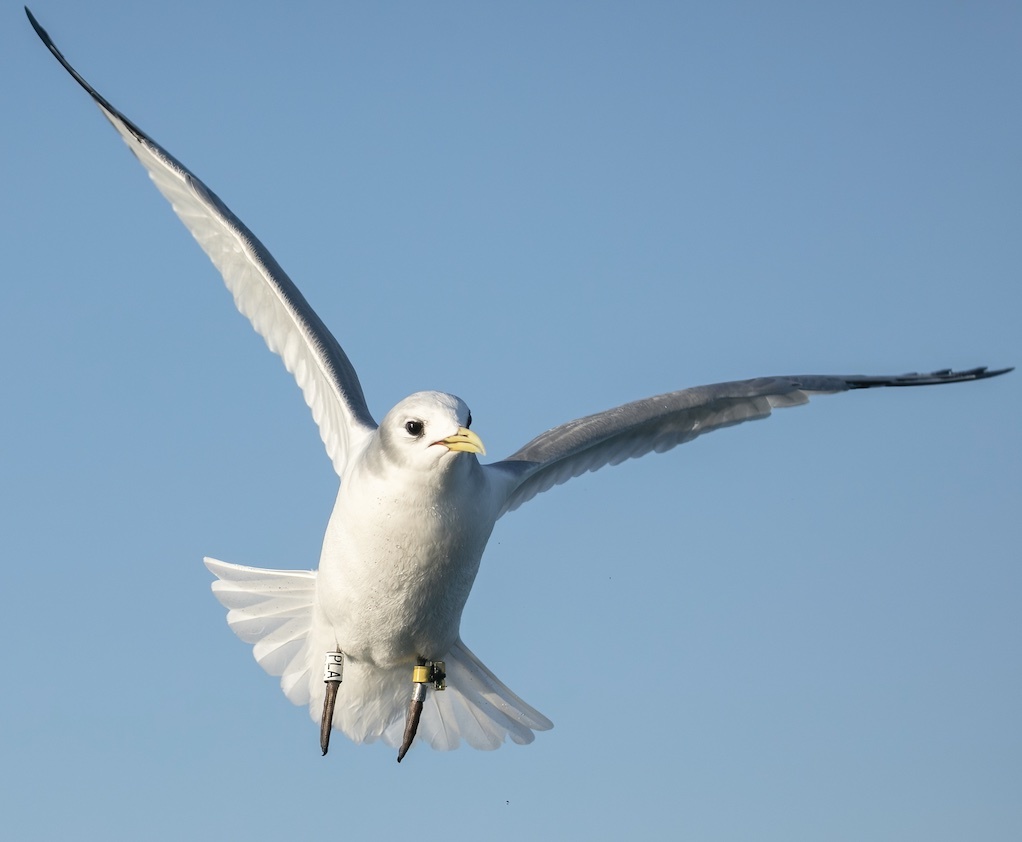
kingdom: Animalia
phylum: Chordata
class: Aves
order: Charadriiformes
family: Laridae
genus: Rissa
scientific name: Rissa tridactyla
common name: Black-legged kittiwake
